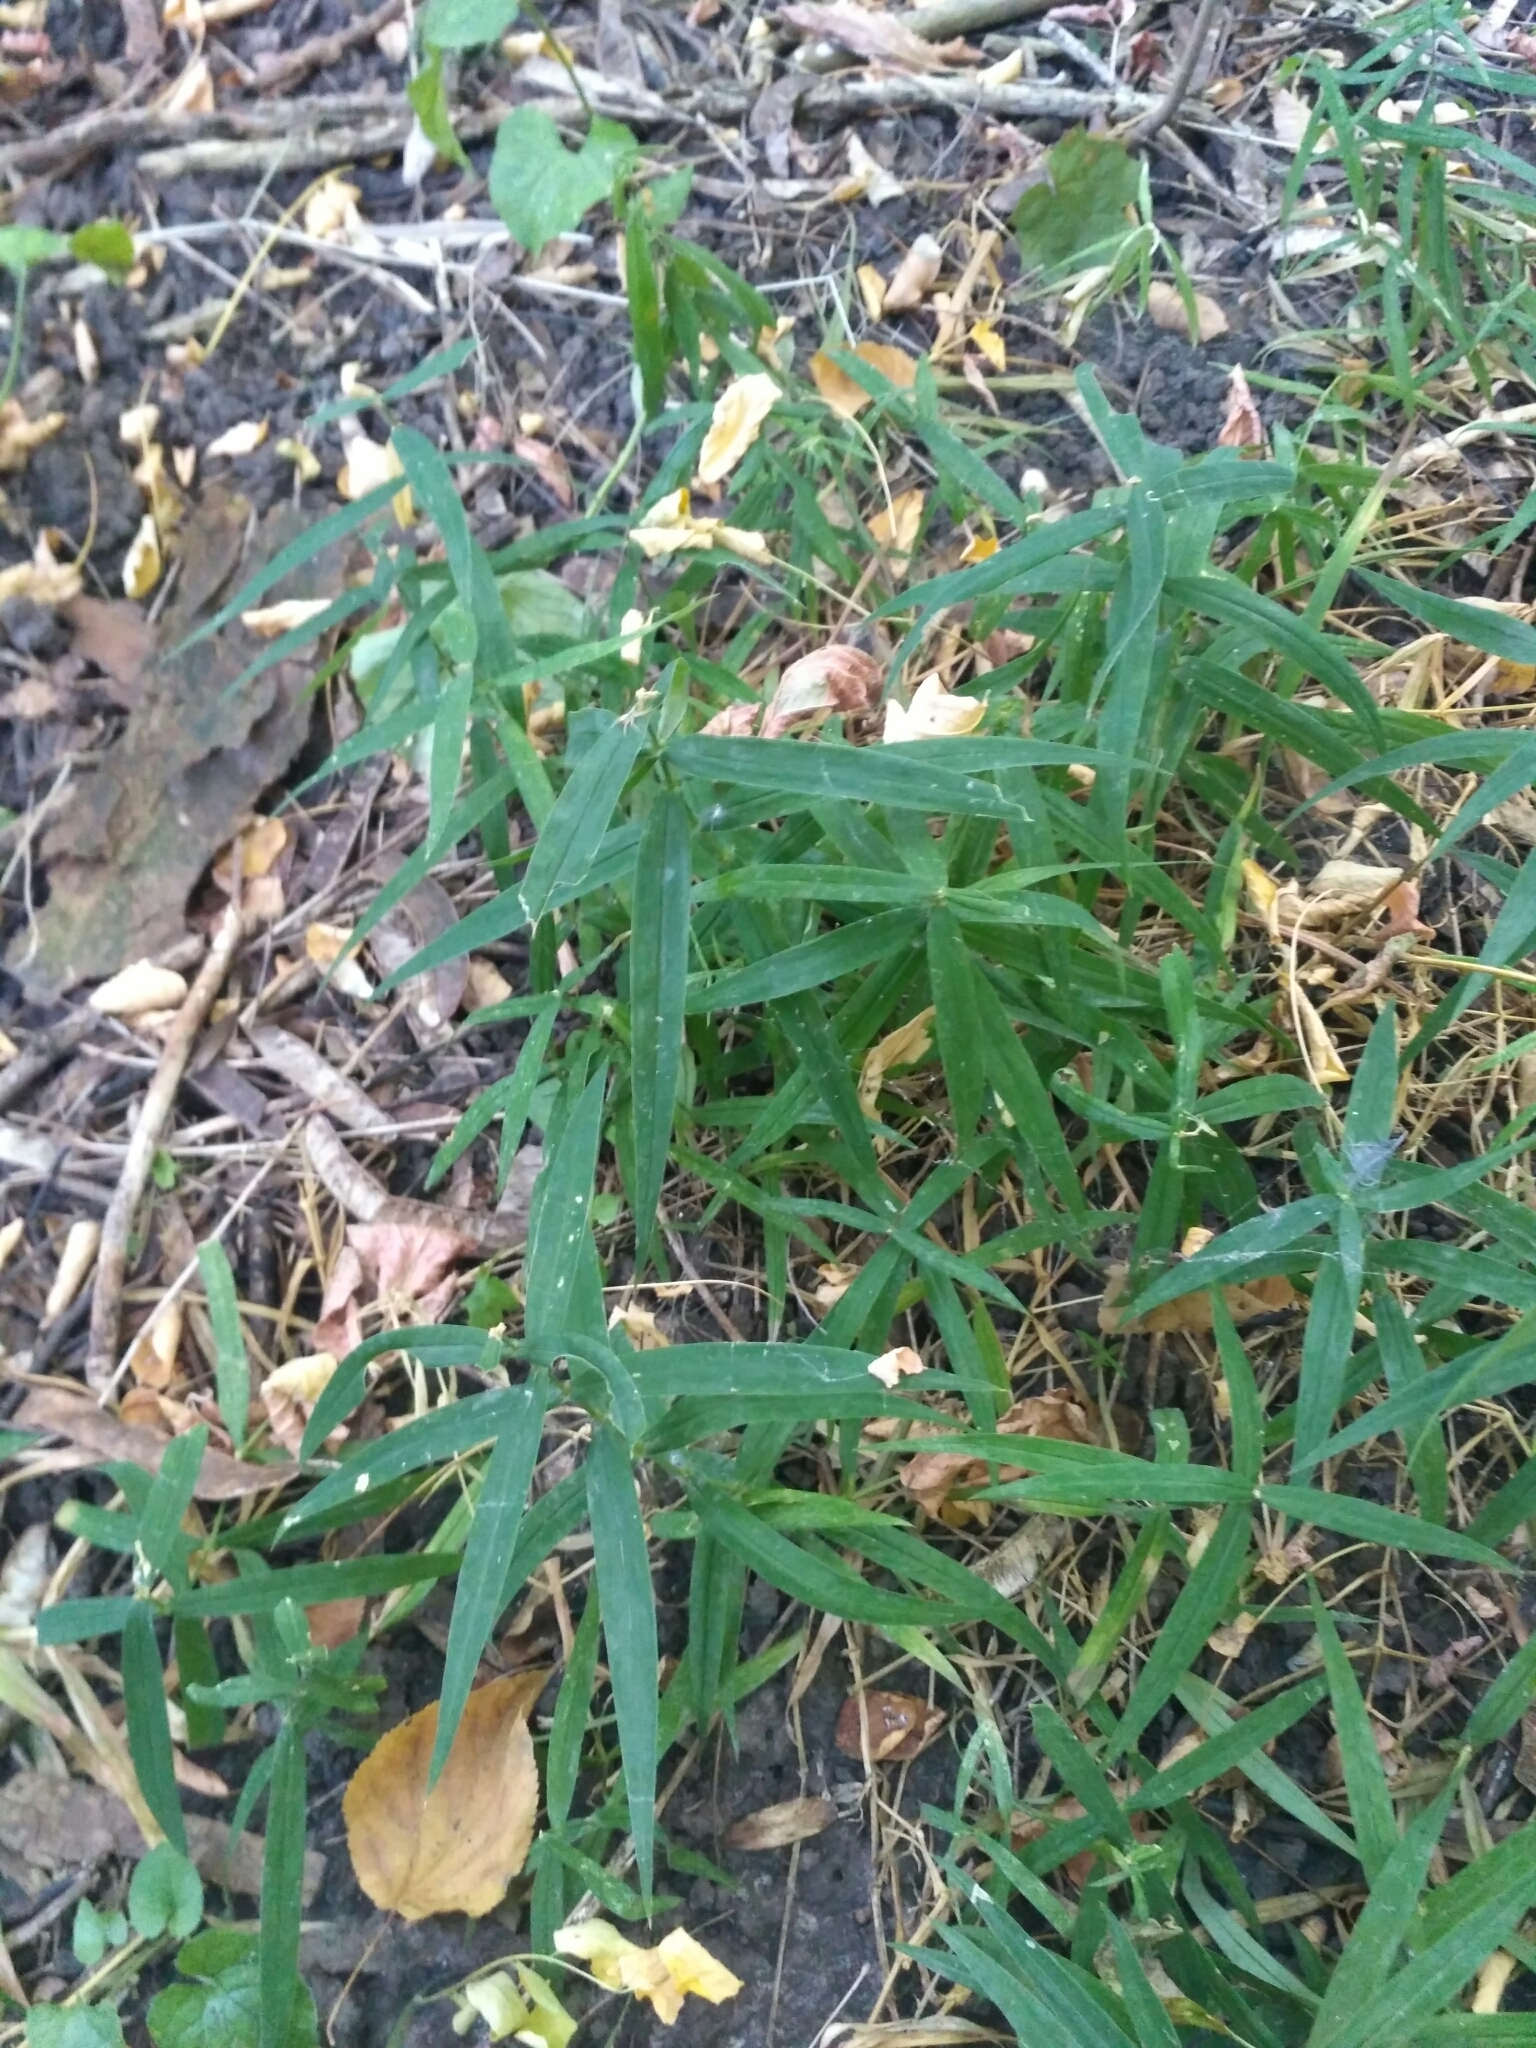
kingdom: Plantae
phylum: Tracheophyta
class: Magnoliopsida
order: Caryophyllales
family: Caryophyllaceae
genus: Rabelera
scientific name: Rabelera holostea
